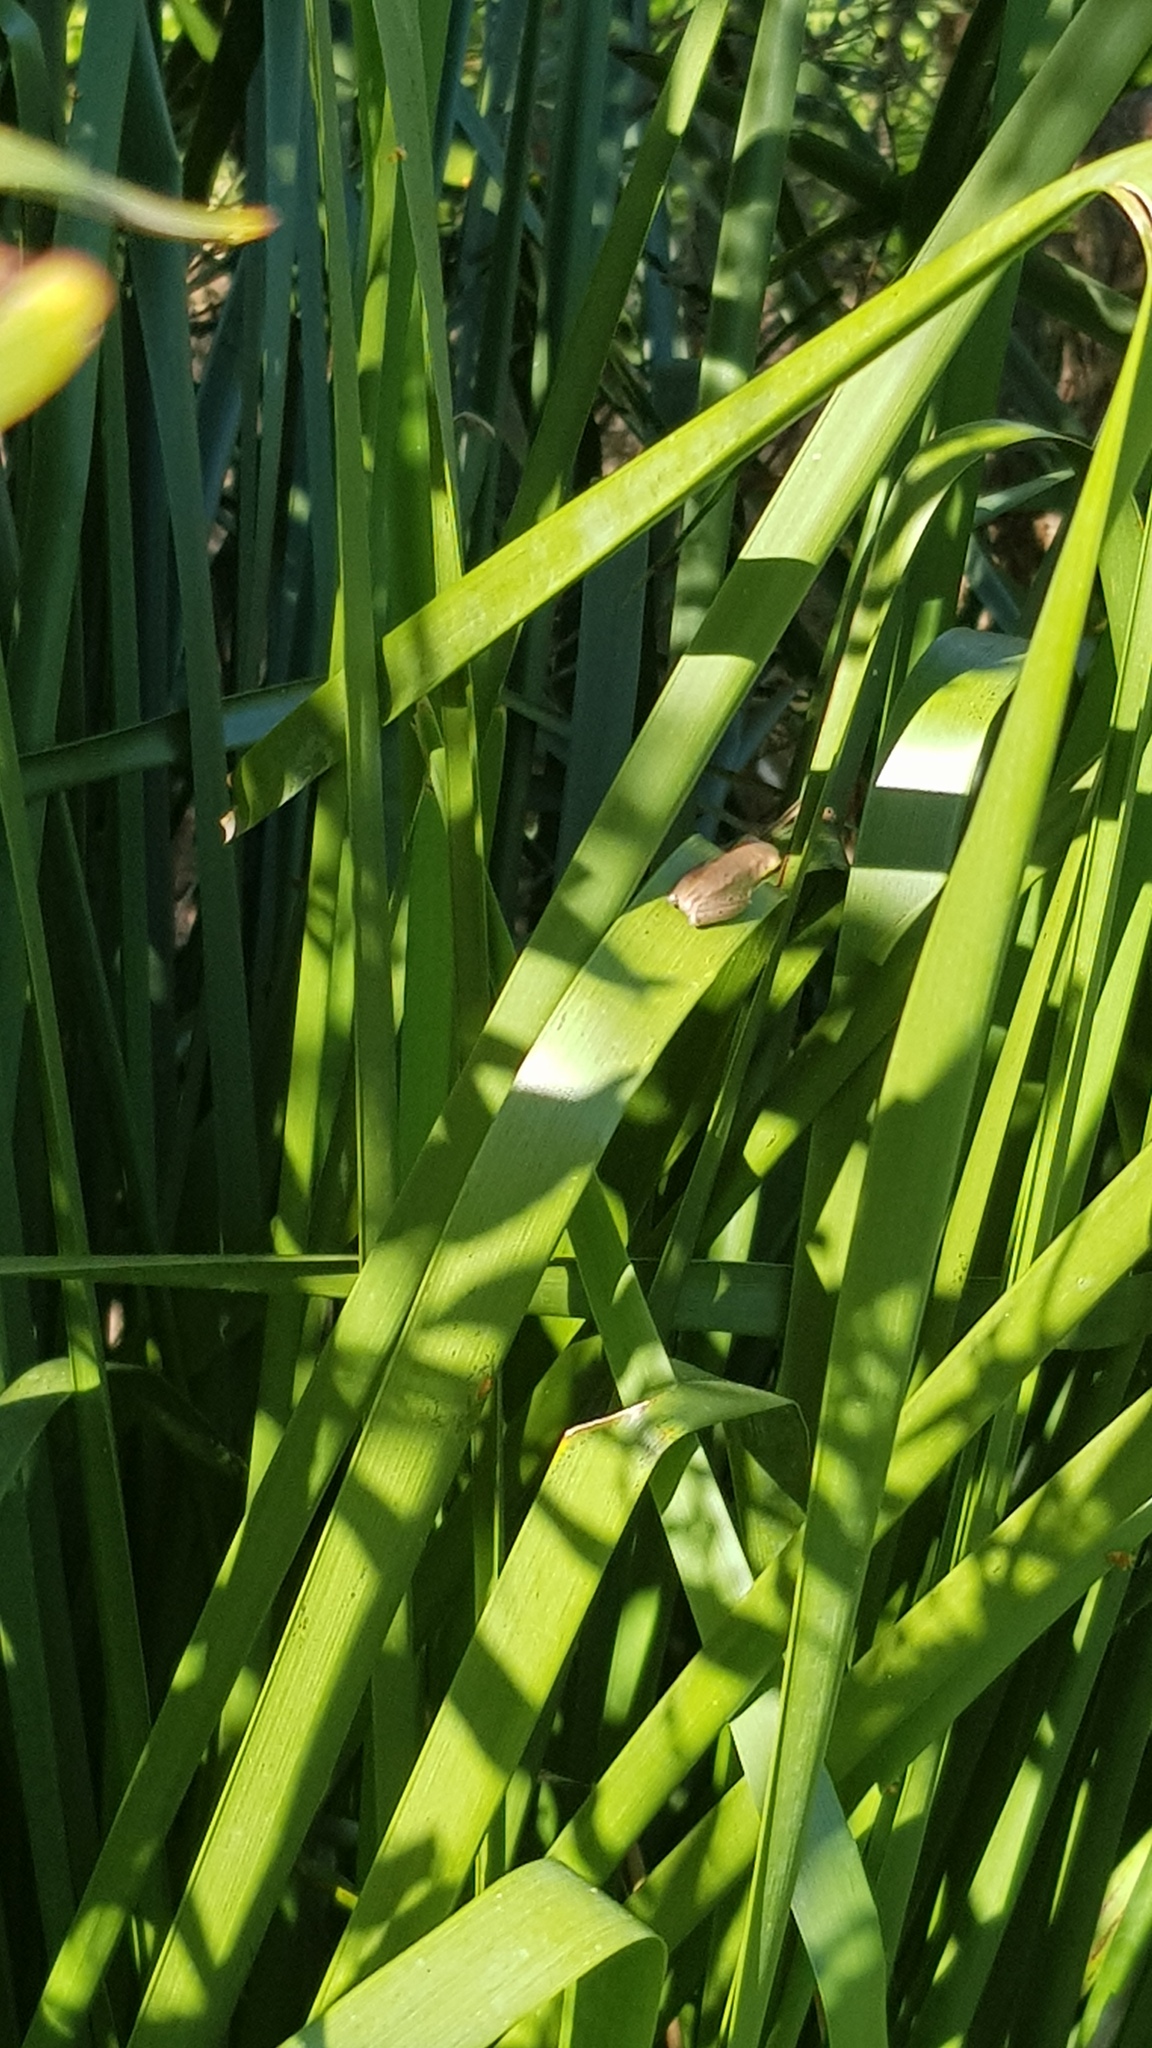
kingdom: Animalia
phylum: Chordata
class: Amphibia
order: Anura
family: Pelodryadidae
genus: Litoria
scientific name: Litoria fallax
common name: Eastern dwarf treefrog
